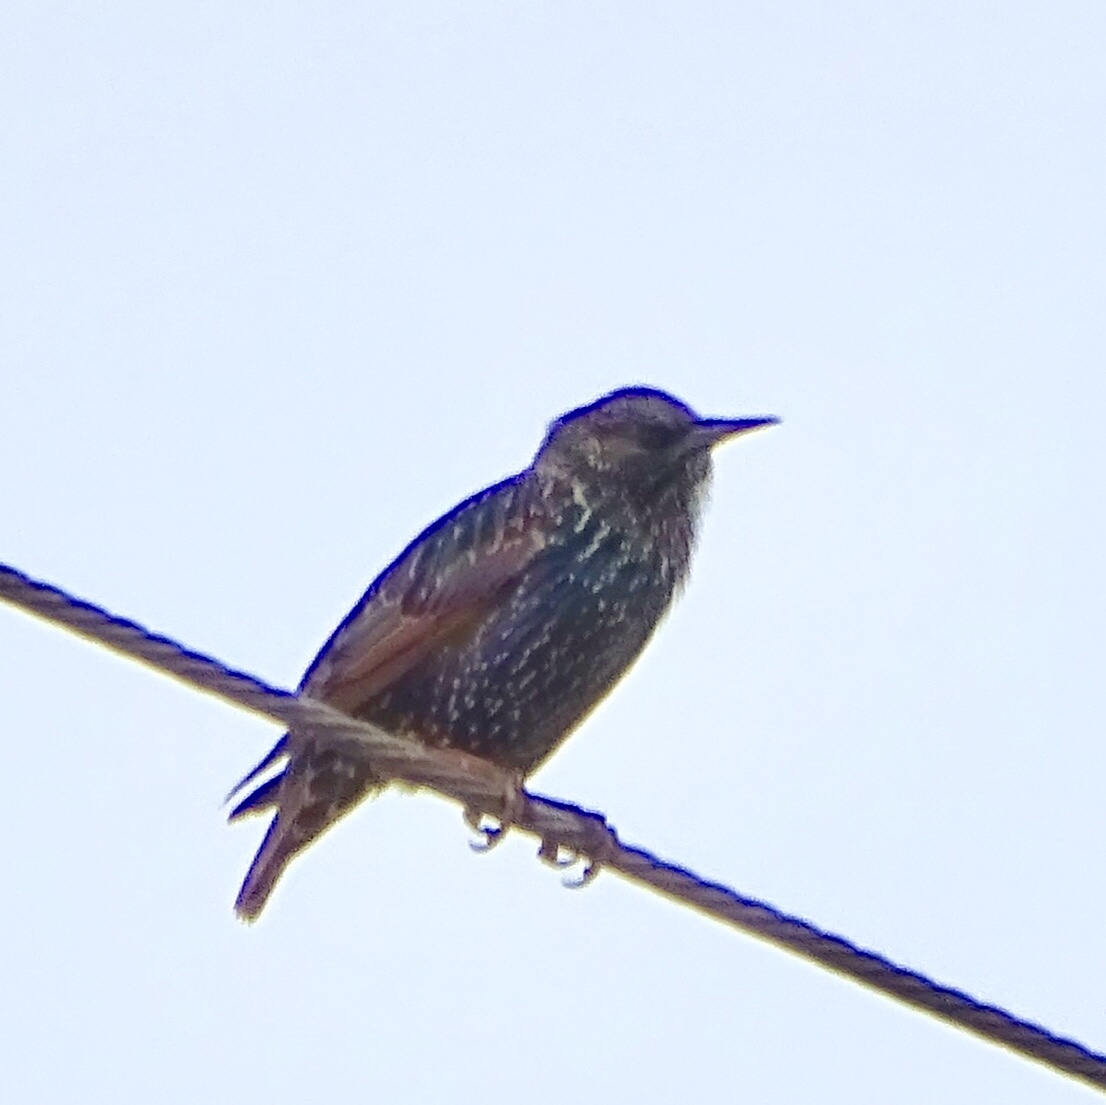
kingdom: Animalia
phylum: Chordata
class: Aves
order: Passeriformes
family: Sturnidae
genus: Sturnus
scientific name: Sturnus vulgaris
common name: Common starling
